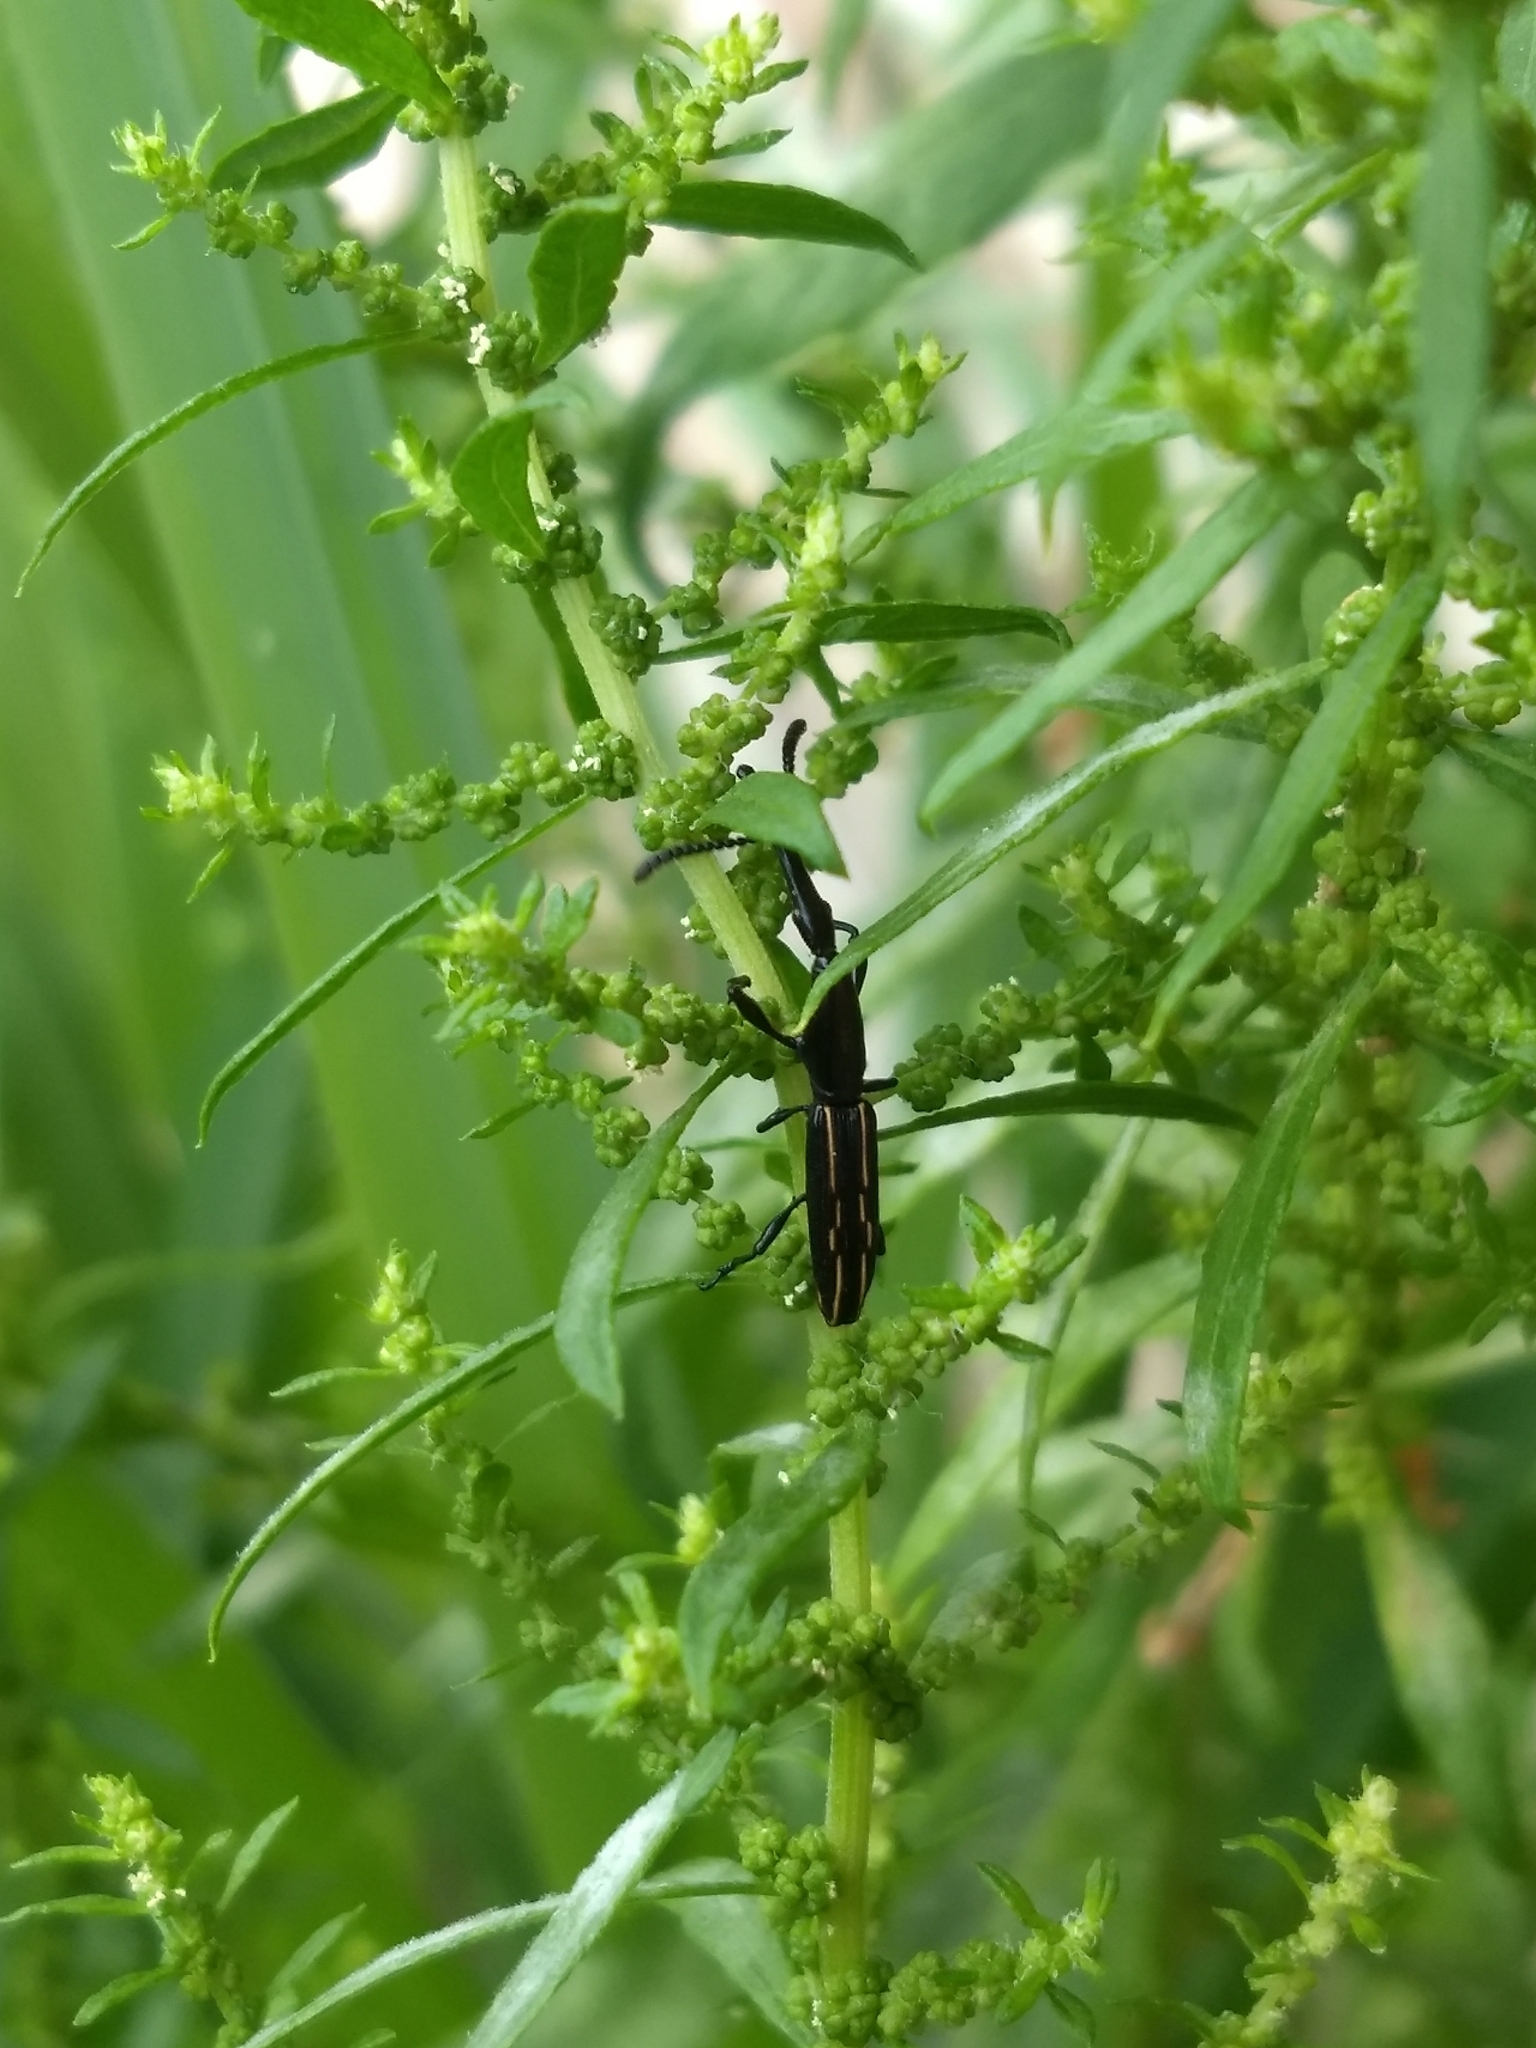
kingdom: Animalia
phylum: Arthropoda
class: Insecta
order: Coleoptera
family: Brentidae
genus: Brentus
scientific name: Brentus cylindrus
